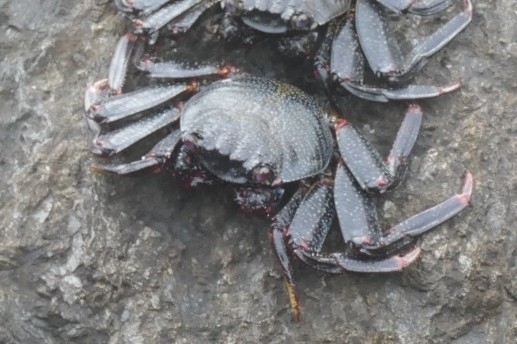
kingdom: Animalia
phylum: Arthropoda
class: Malacostraca
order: Decapoda
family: Grapsidae
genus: Grapsus
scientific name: Grapsus adscensionis
